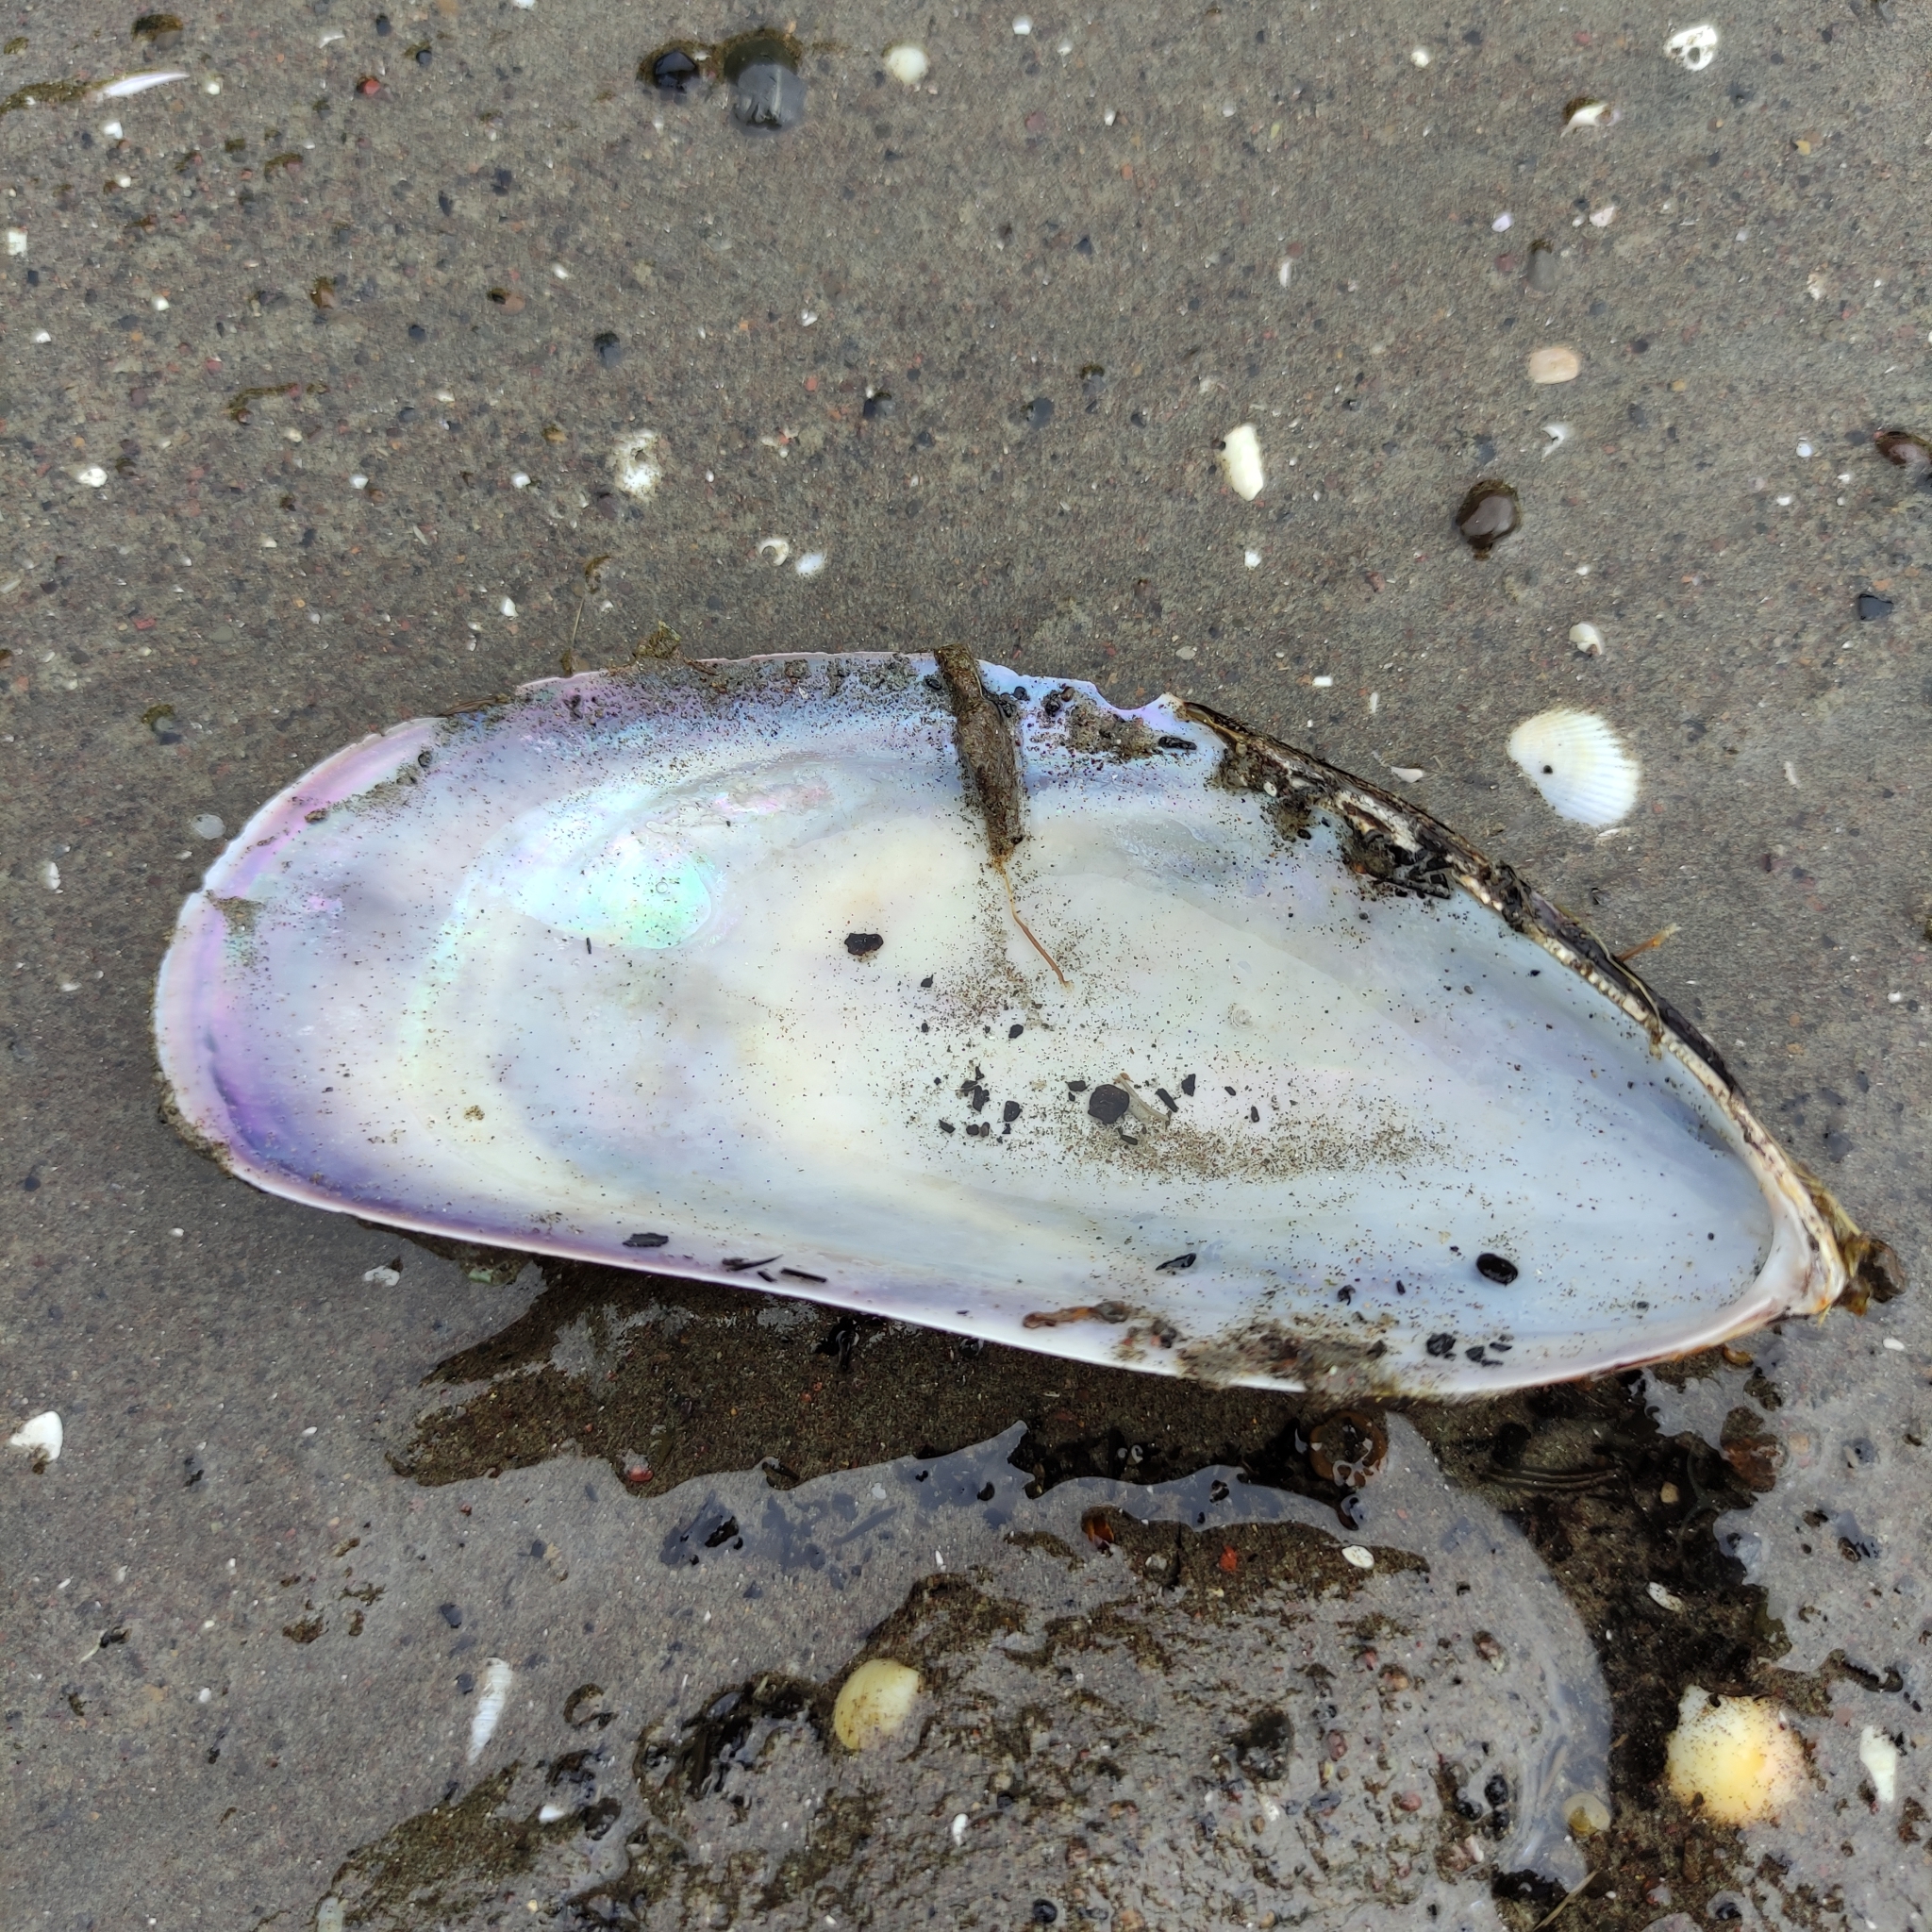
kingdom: Animalia
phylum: Mollusca
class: Bivalvia
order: Mytilida
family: Mytilidae
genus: Perna
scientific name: Perna canaliculus
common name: New zealand greenshelltm
